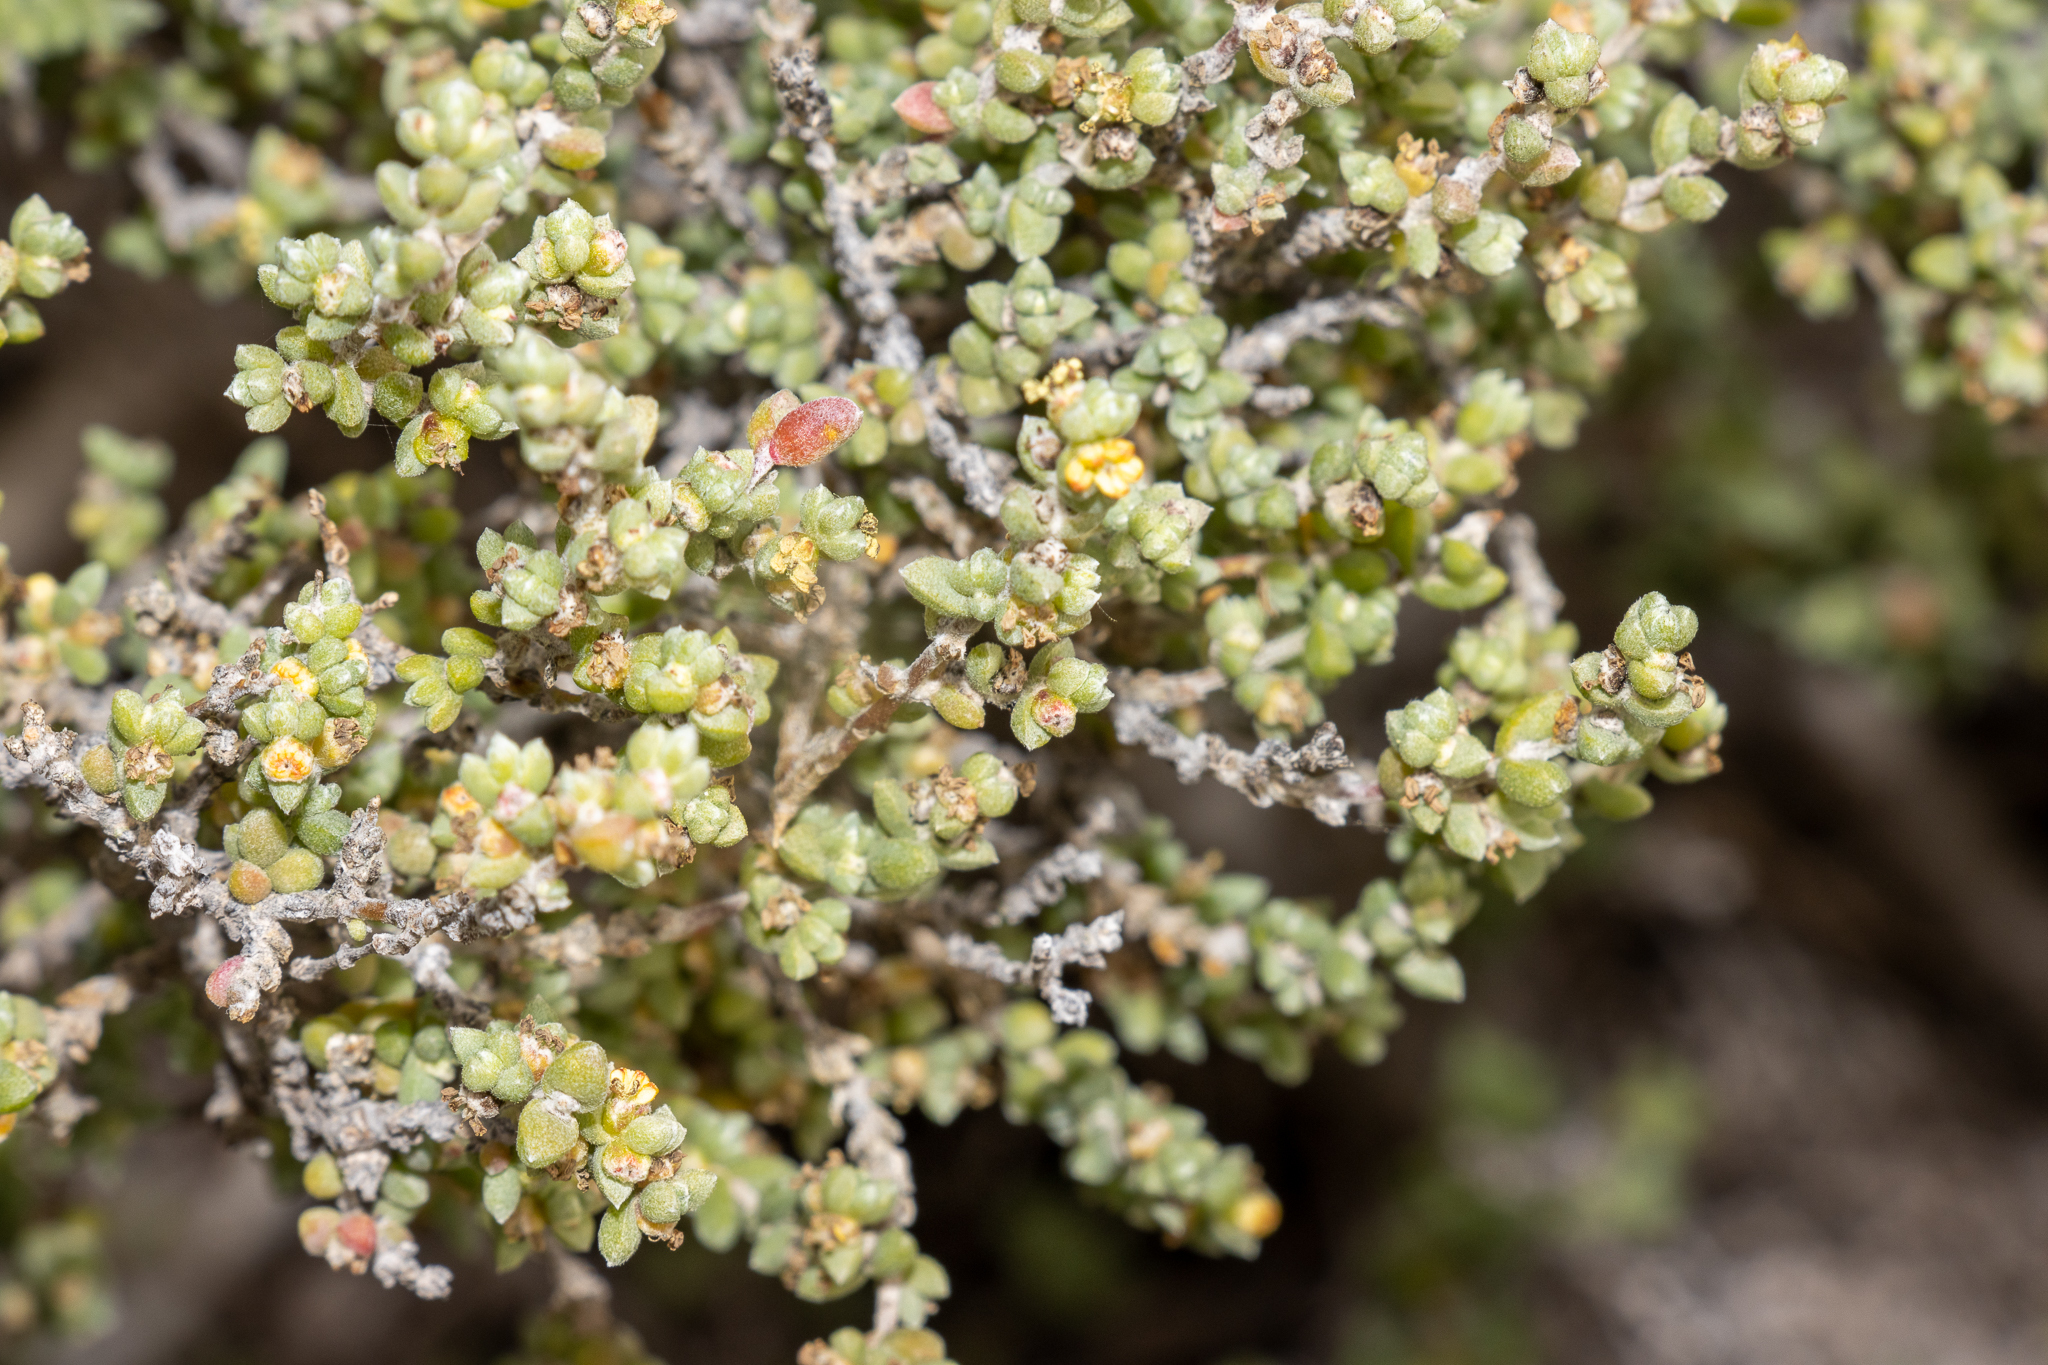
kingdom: Plantae
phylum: Tracheophyta
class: Magnoliopsida
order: Caryophyllales
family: Amaranthaceae
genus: Maireana
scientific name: Maireana oppositifolia
